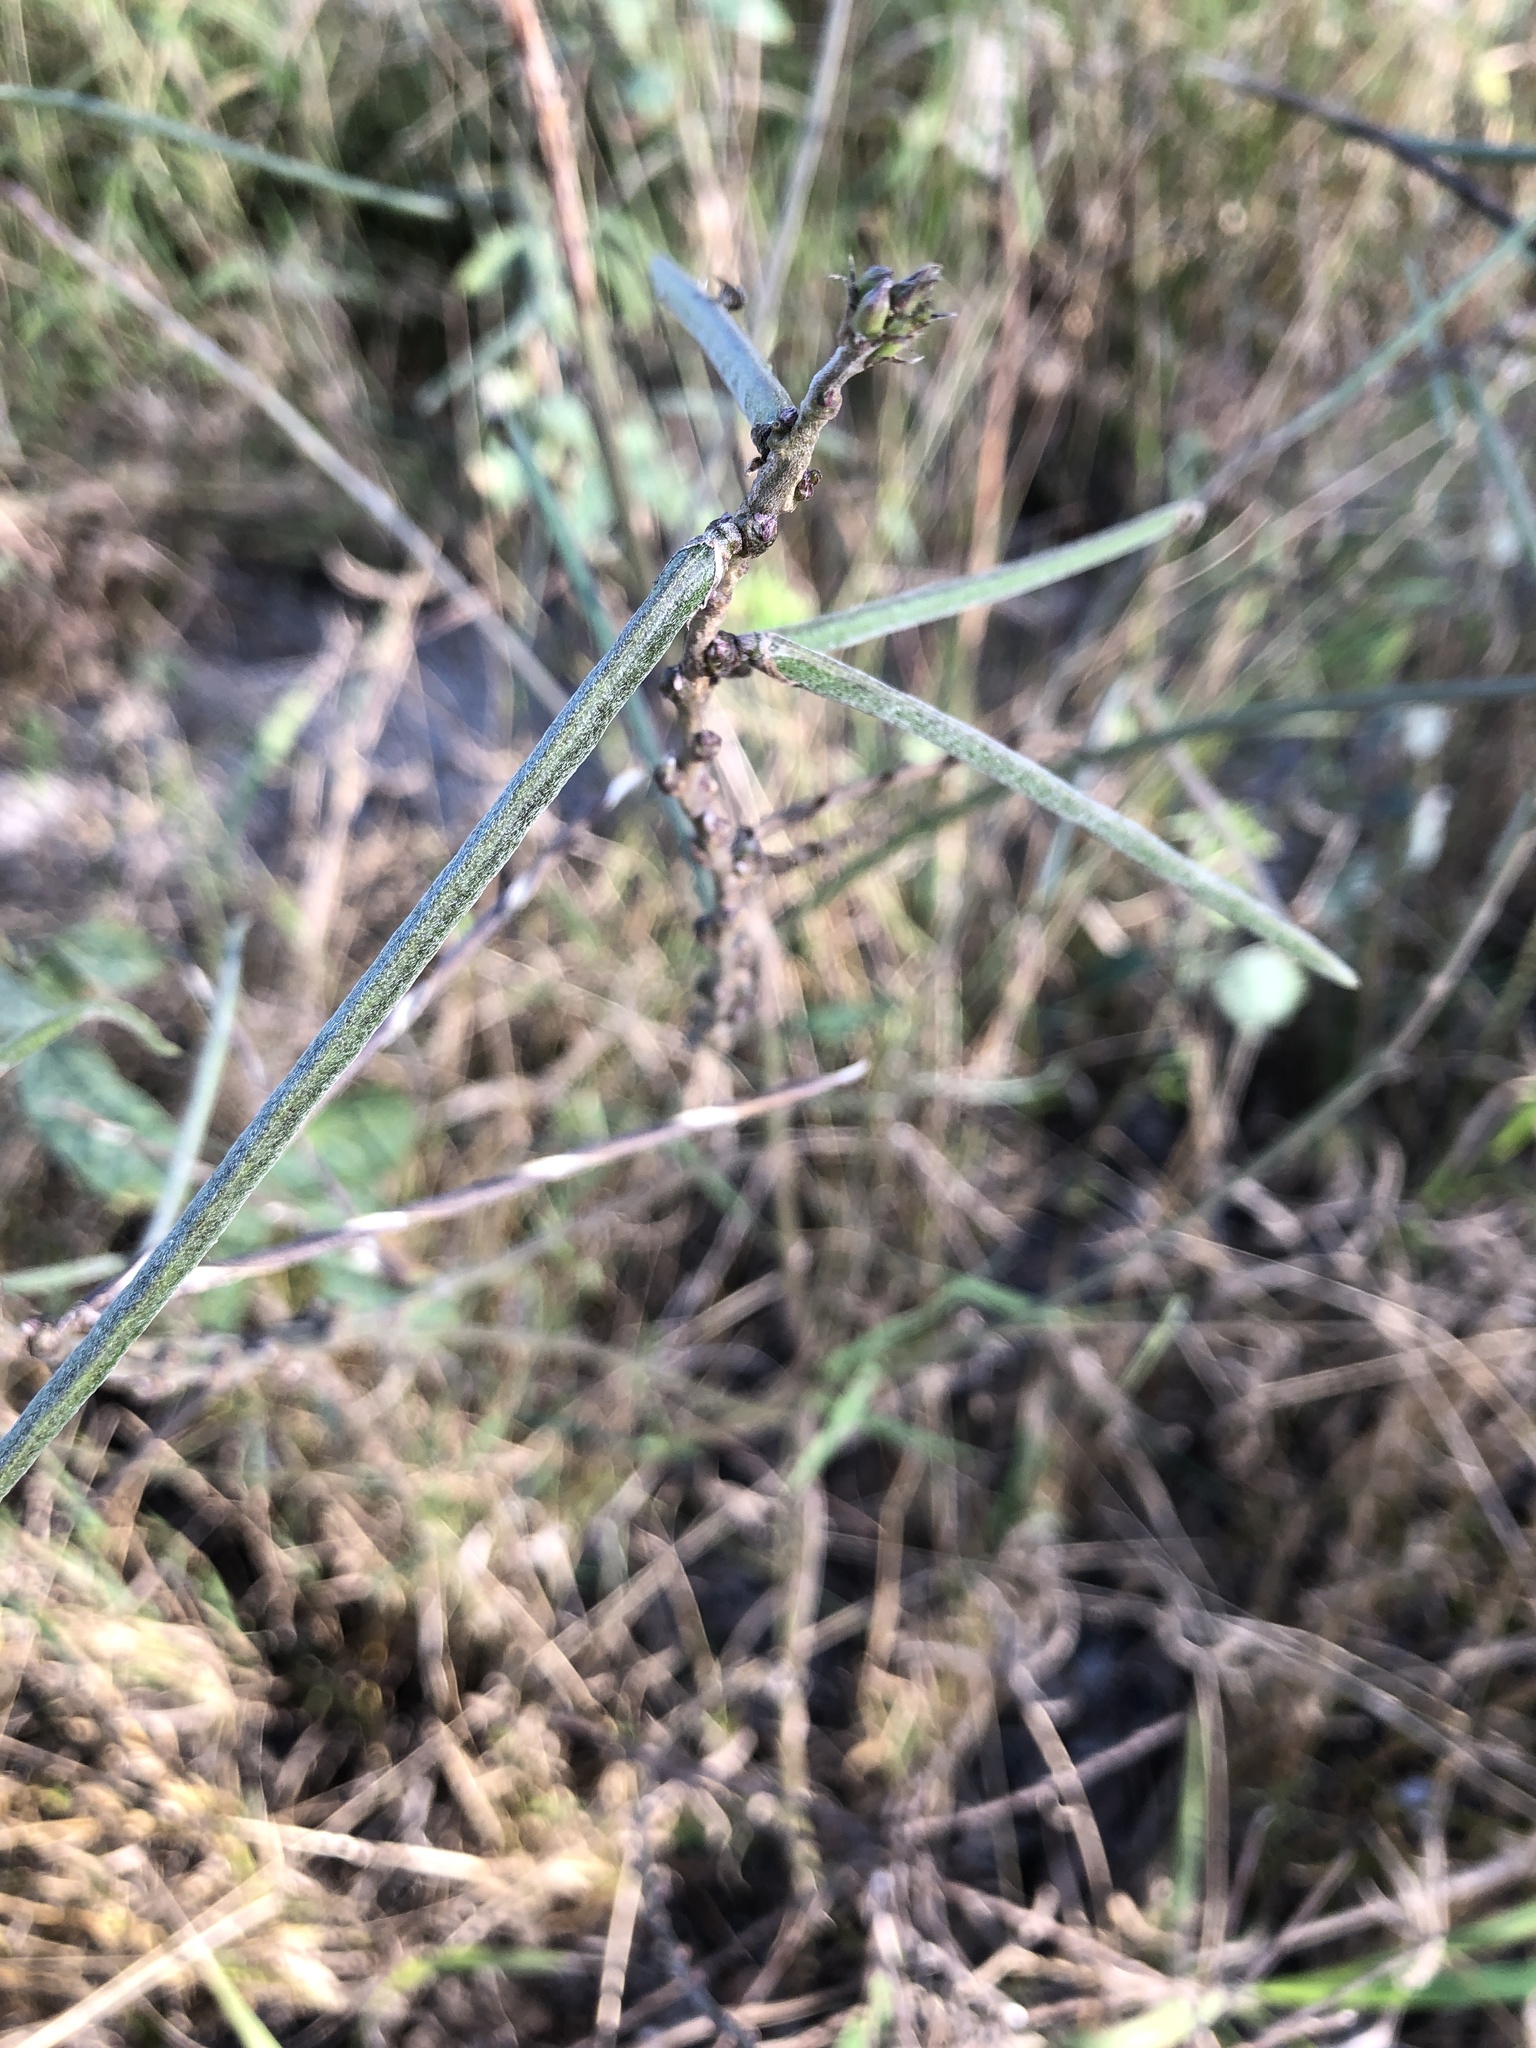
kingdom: Plantae
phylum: Tracheophyta
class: Magnoliopsida
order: Fabales
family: Fabaceae
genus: Macroptilium
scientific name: Macroptilium lathyroides
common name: Wild bushbean
